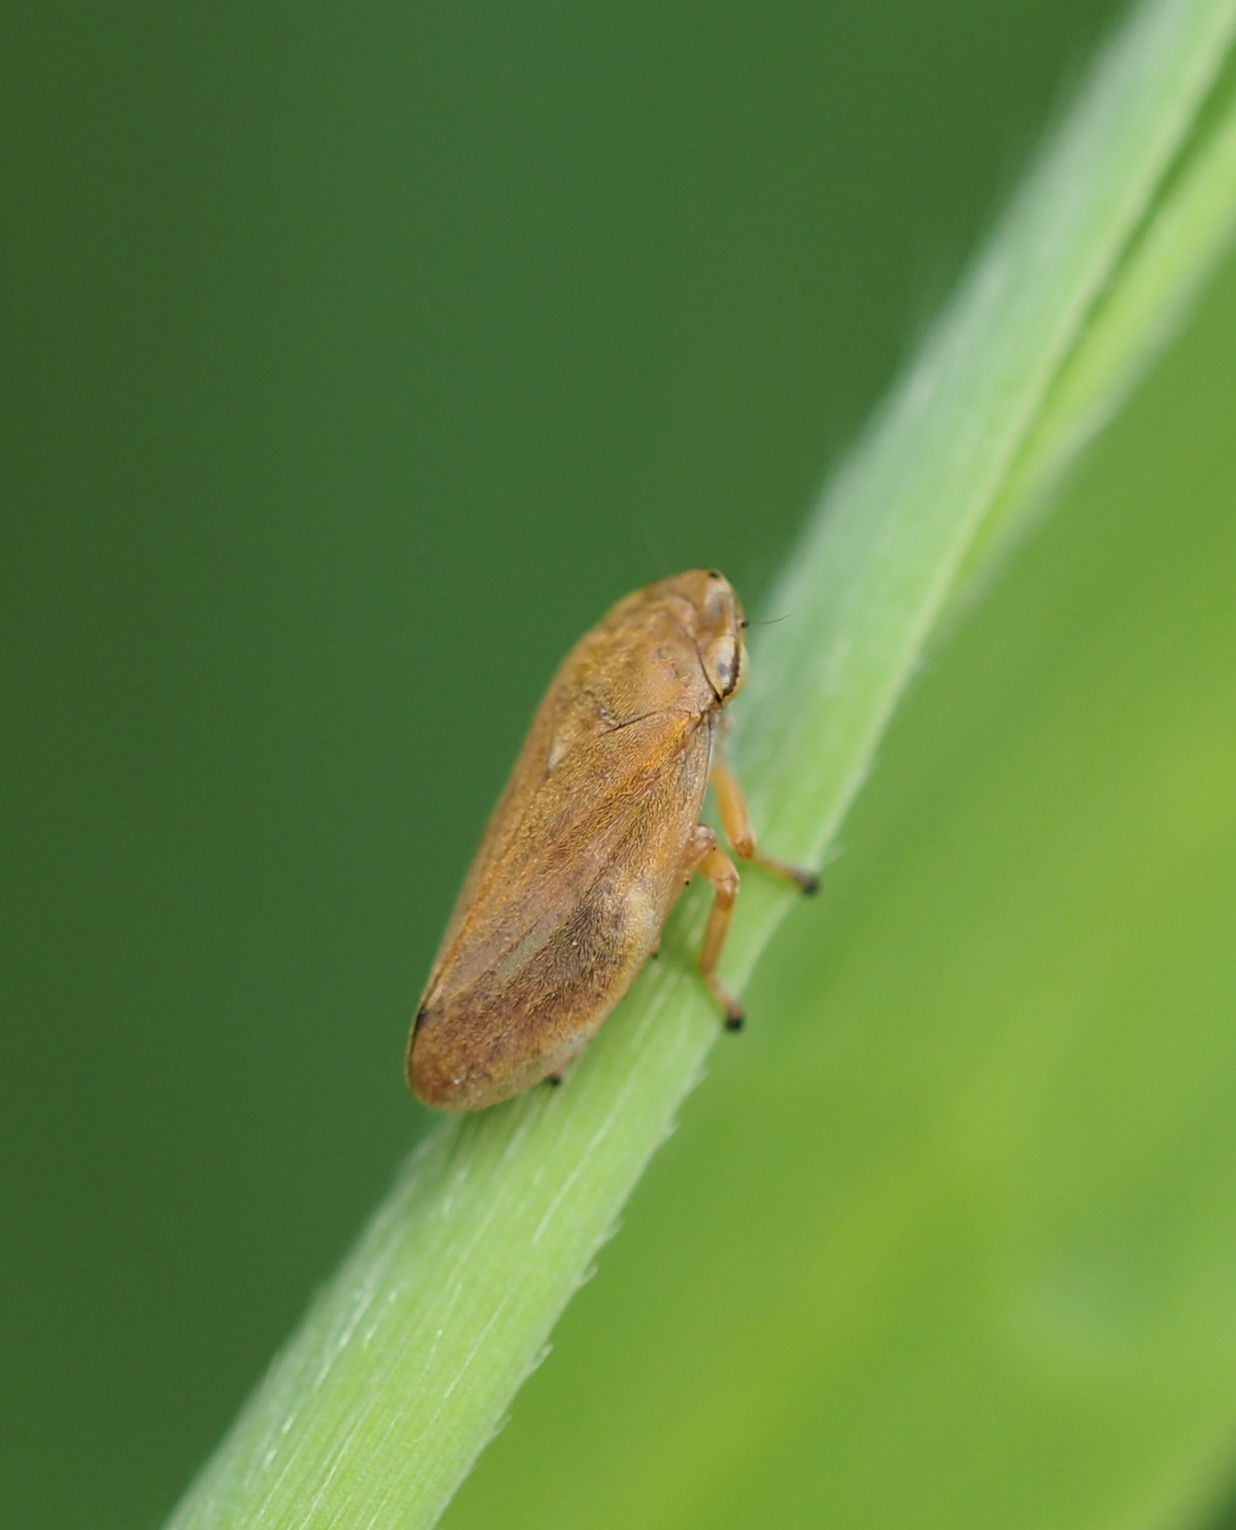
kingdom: Animalia
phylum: Arthropoda
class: Insecta
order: Hemiptera
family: Aphrophoridae
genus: Philaenus
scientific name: Philaenus spumarius
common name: Meadow spittlebug
